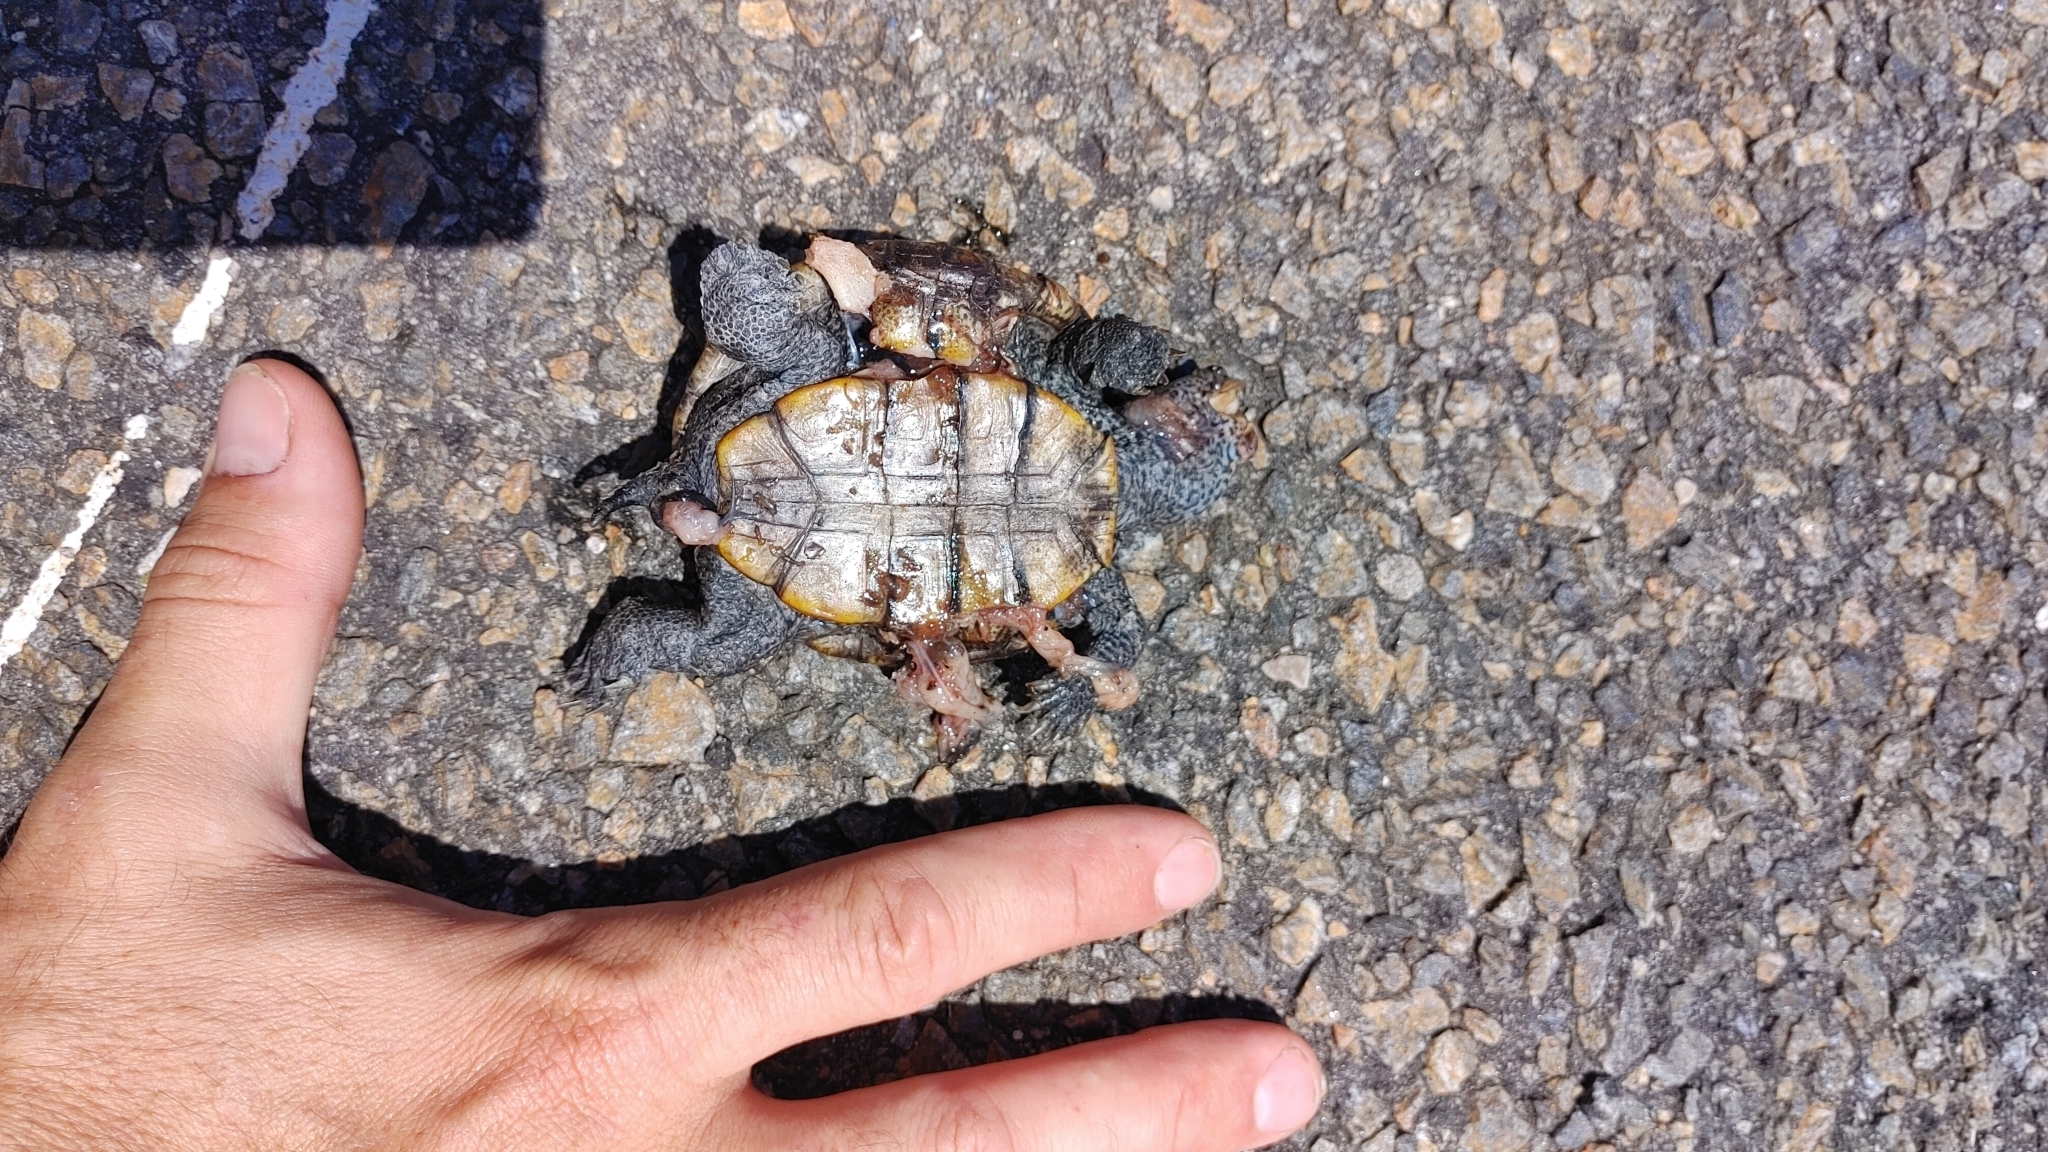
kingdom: Animalia
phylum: Chordata
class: Testudines
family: Emydidae
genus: Malaclemys
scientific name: Malaclemys terrapin
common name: Diamondback terrapin
